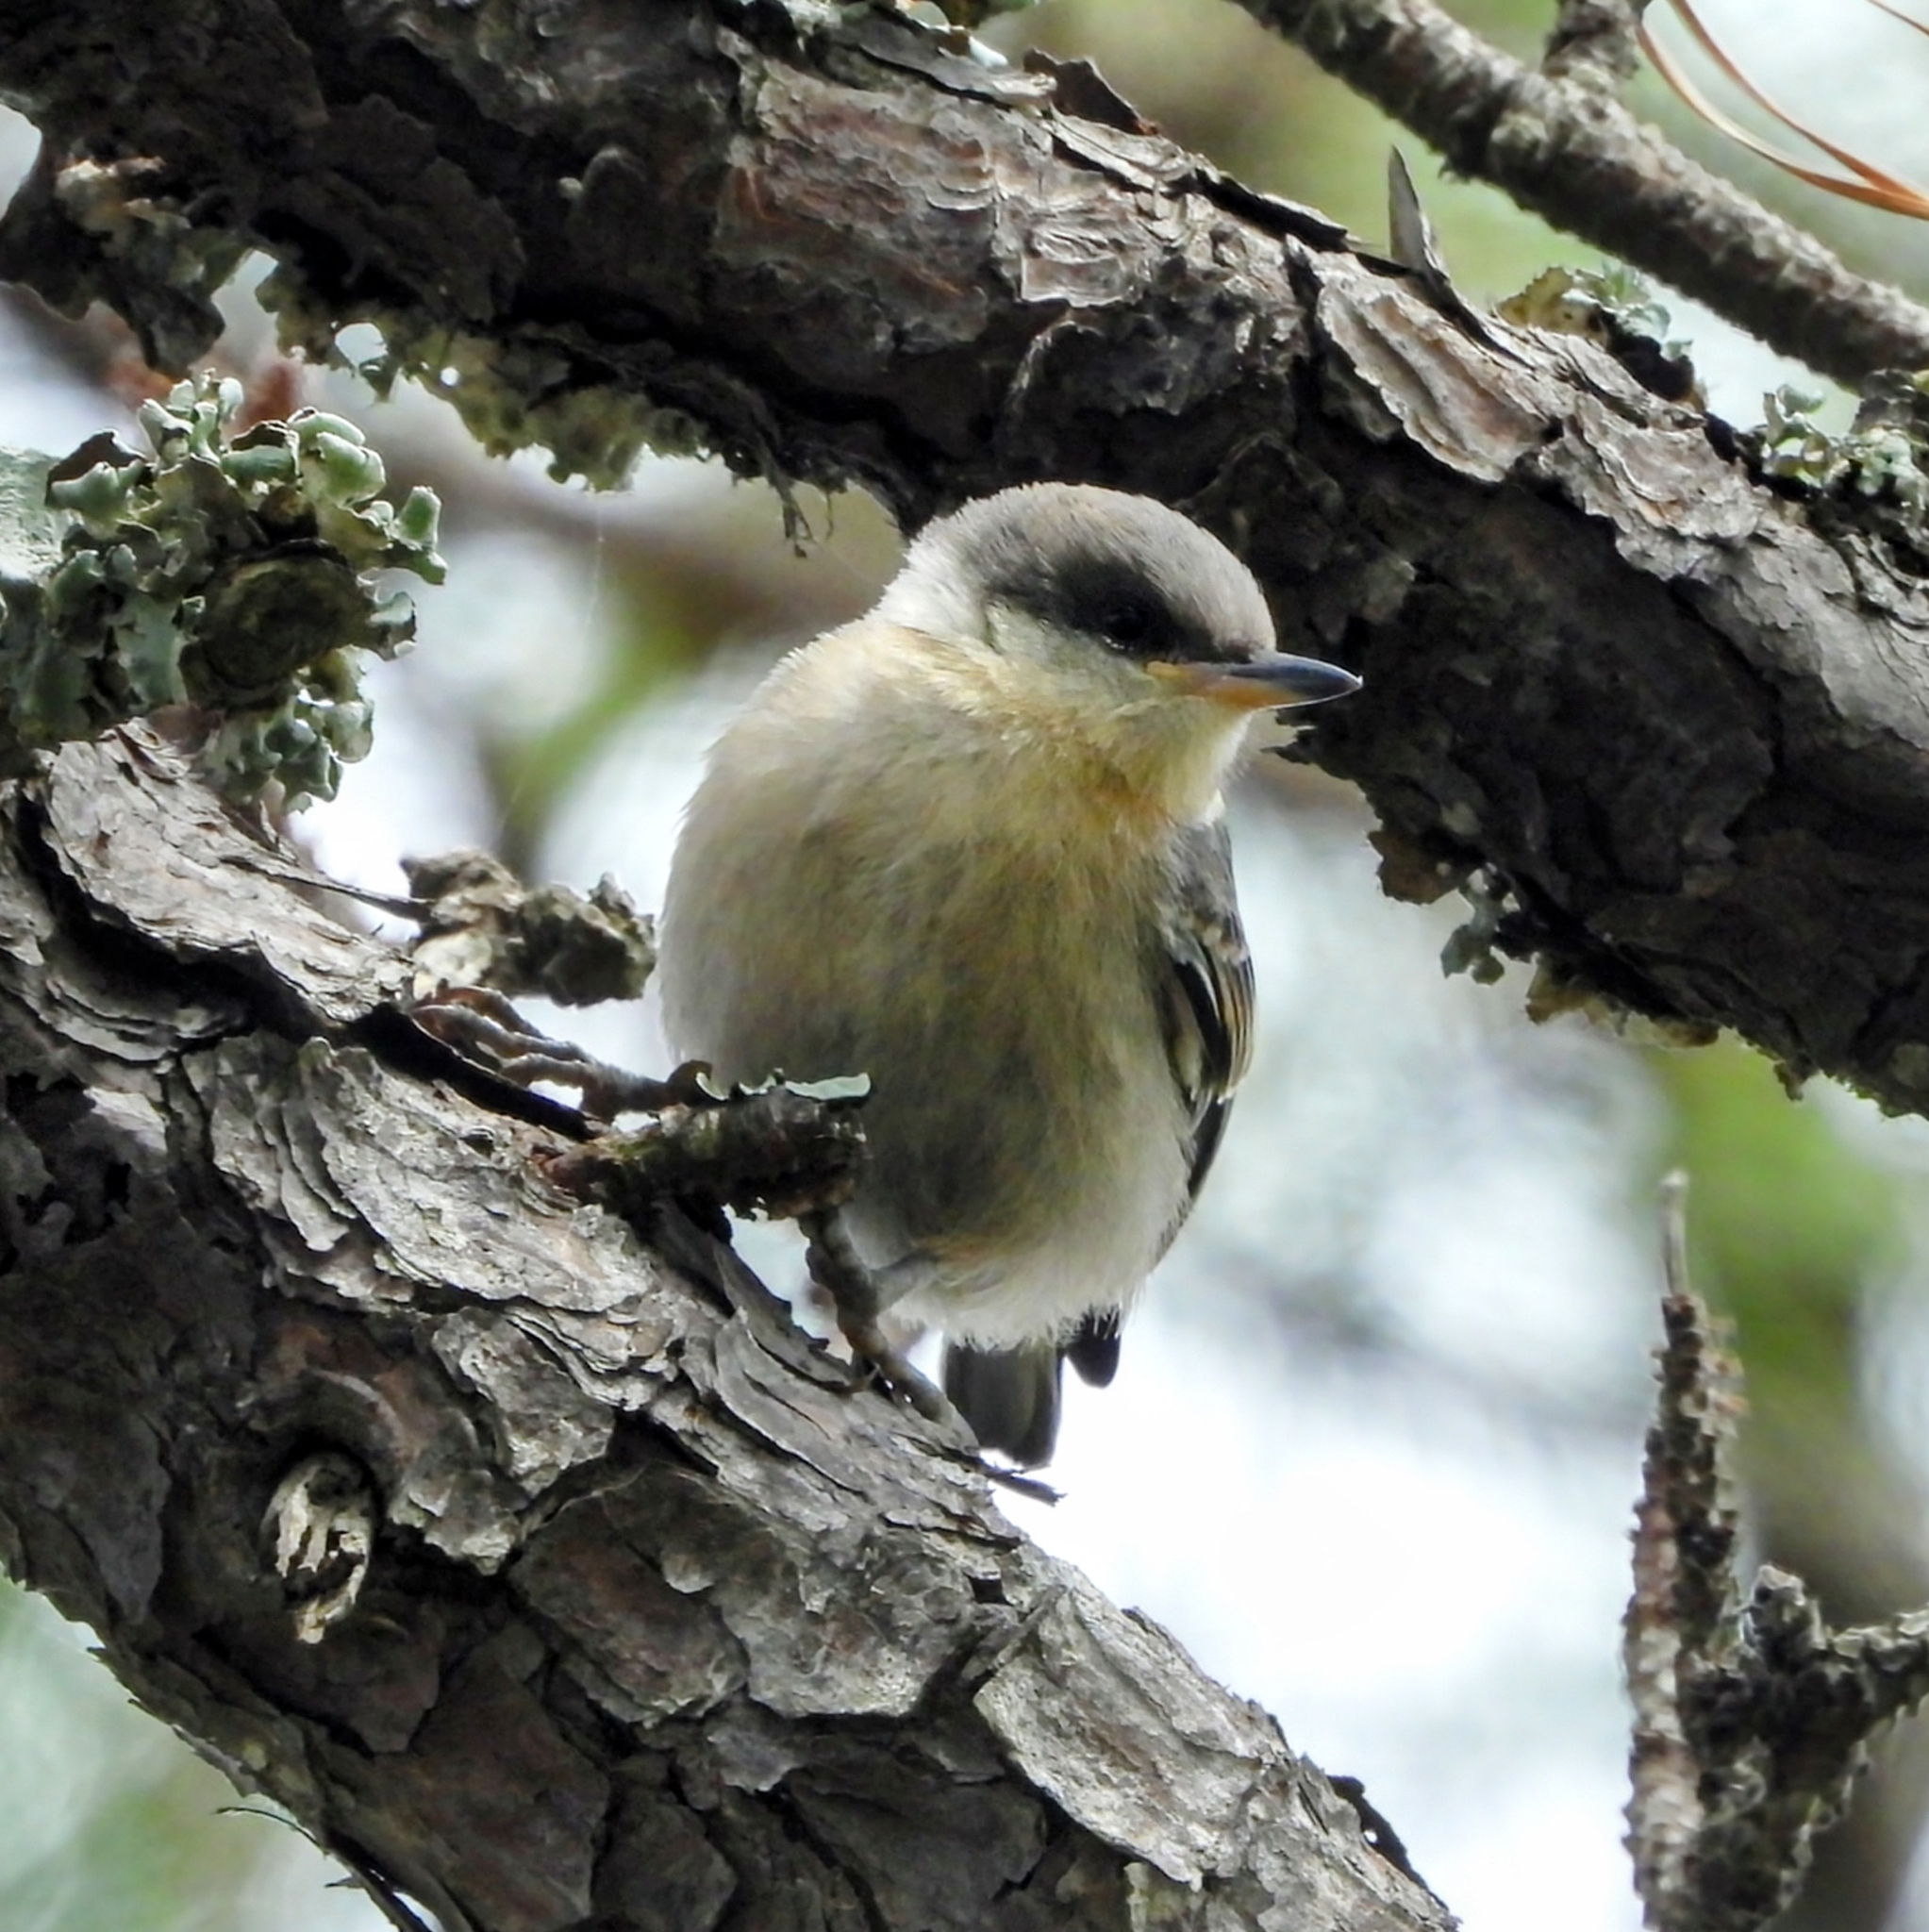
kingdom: Animalia
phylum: Chordata
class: Aves
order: Passeriformes
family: Sittidae
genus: Sitta
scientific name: Sitta pusilla
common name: Brown-headed nuthatch
